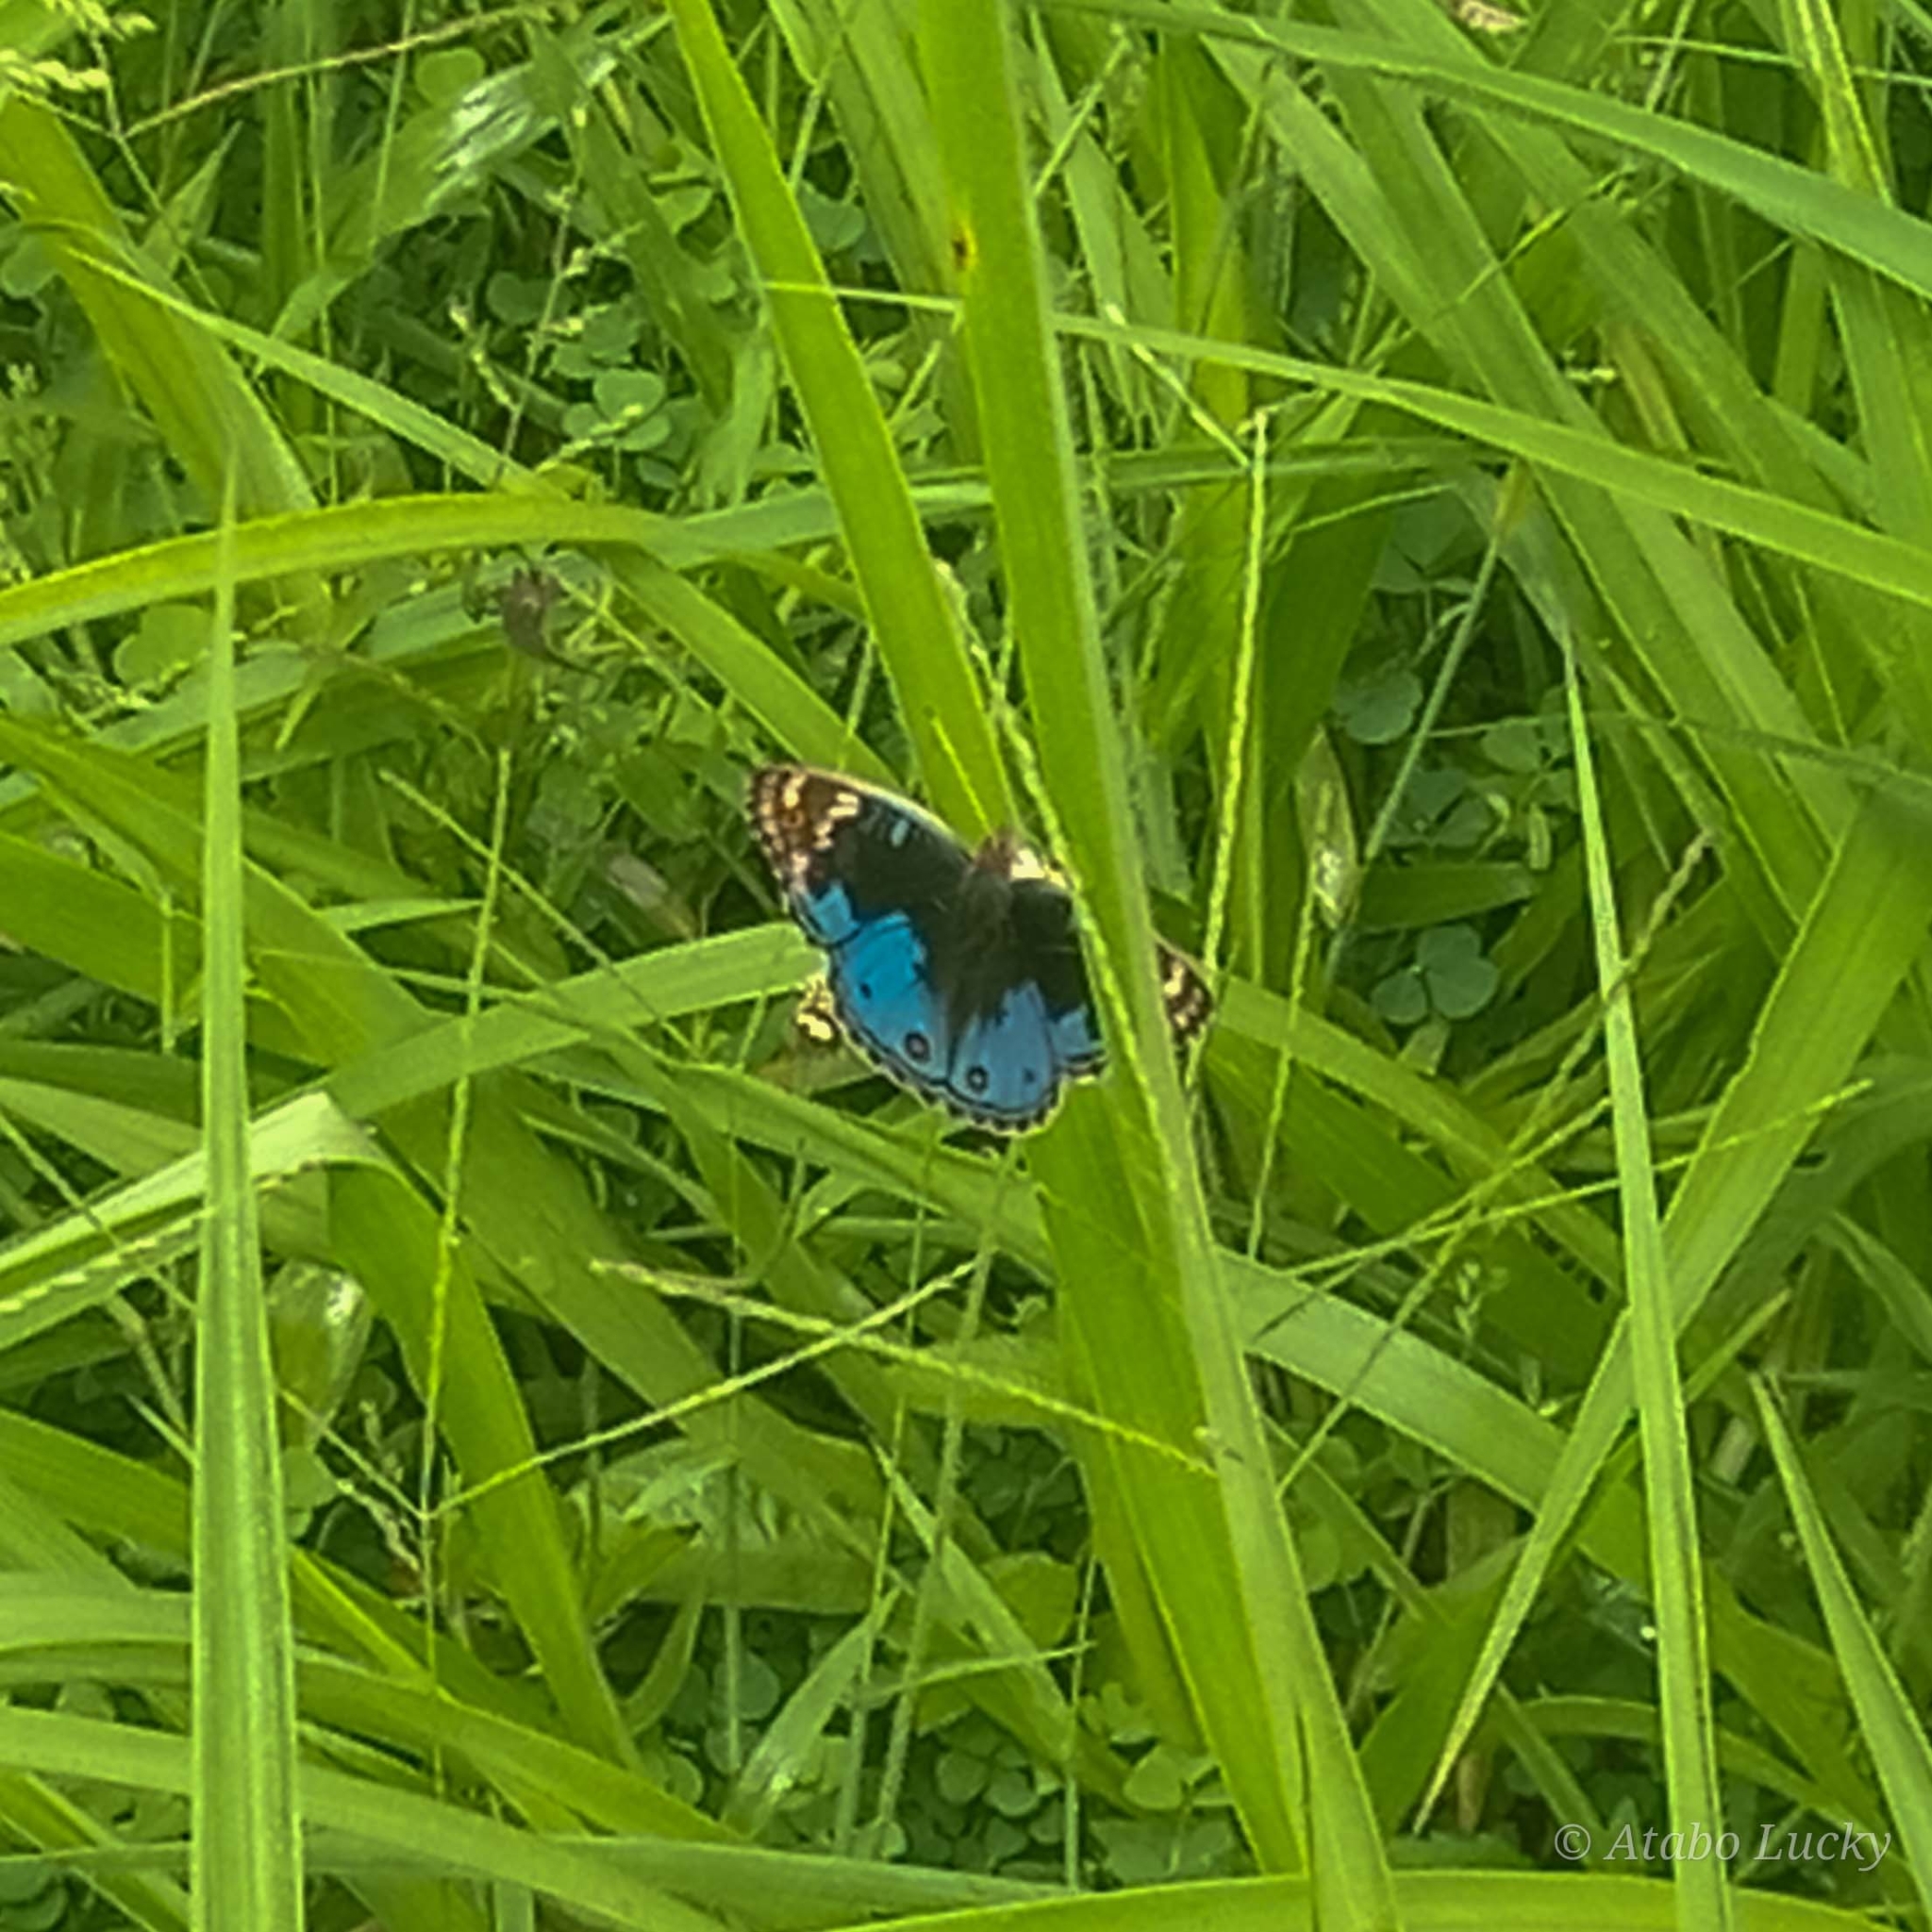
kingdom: Animalia
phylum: Arthropoda
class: Insecta
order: Lepidoptera
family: Nymphalidae
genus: Junonia
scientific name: Junonia orithya
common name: Blue pansy
